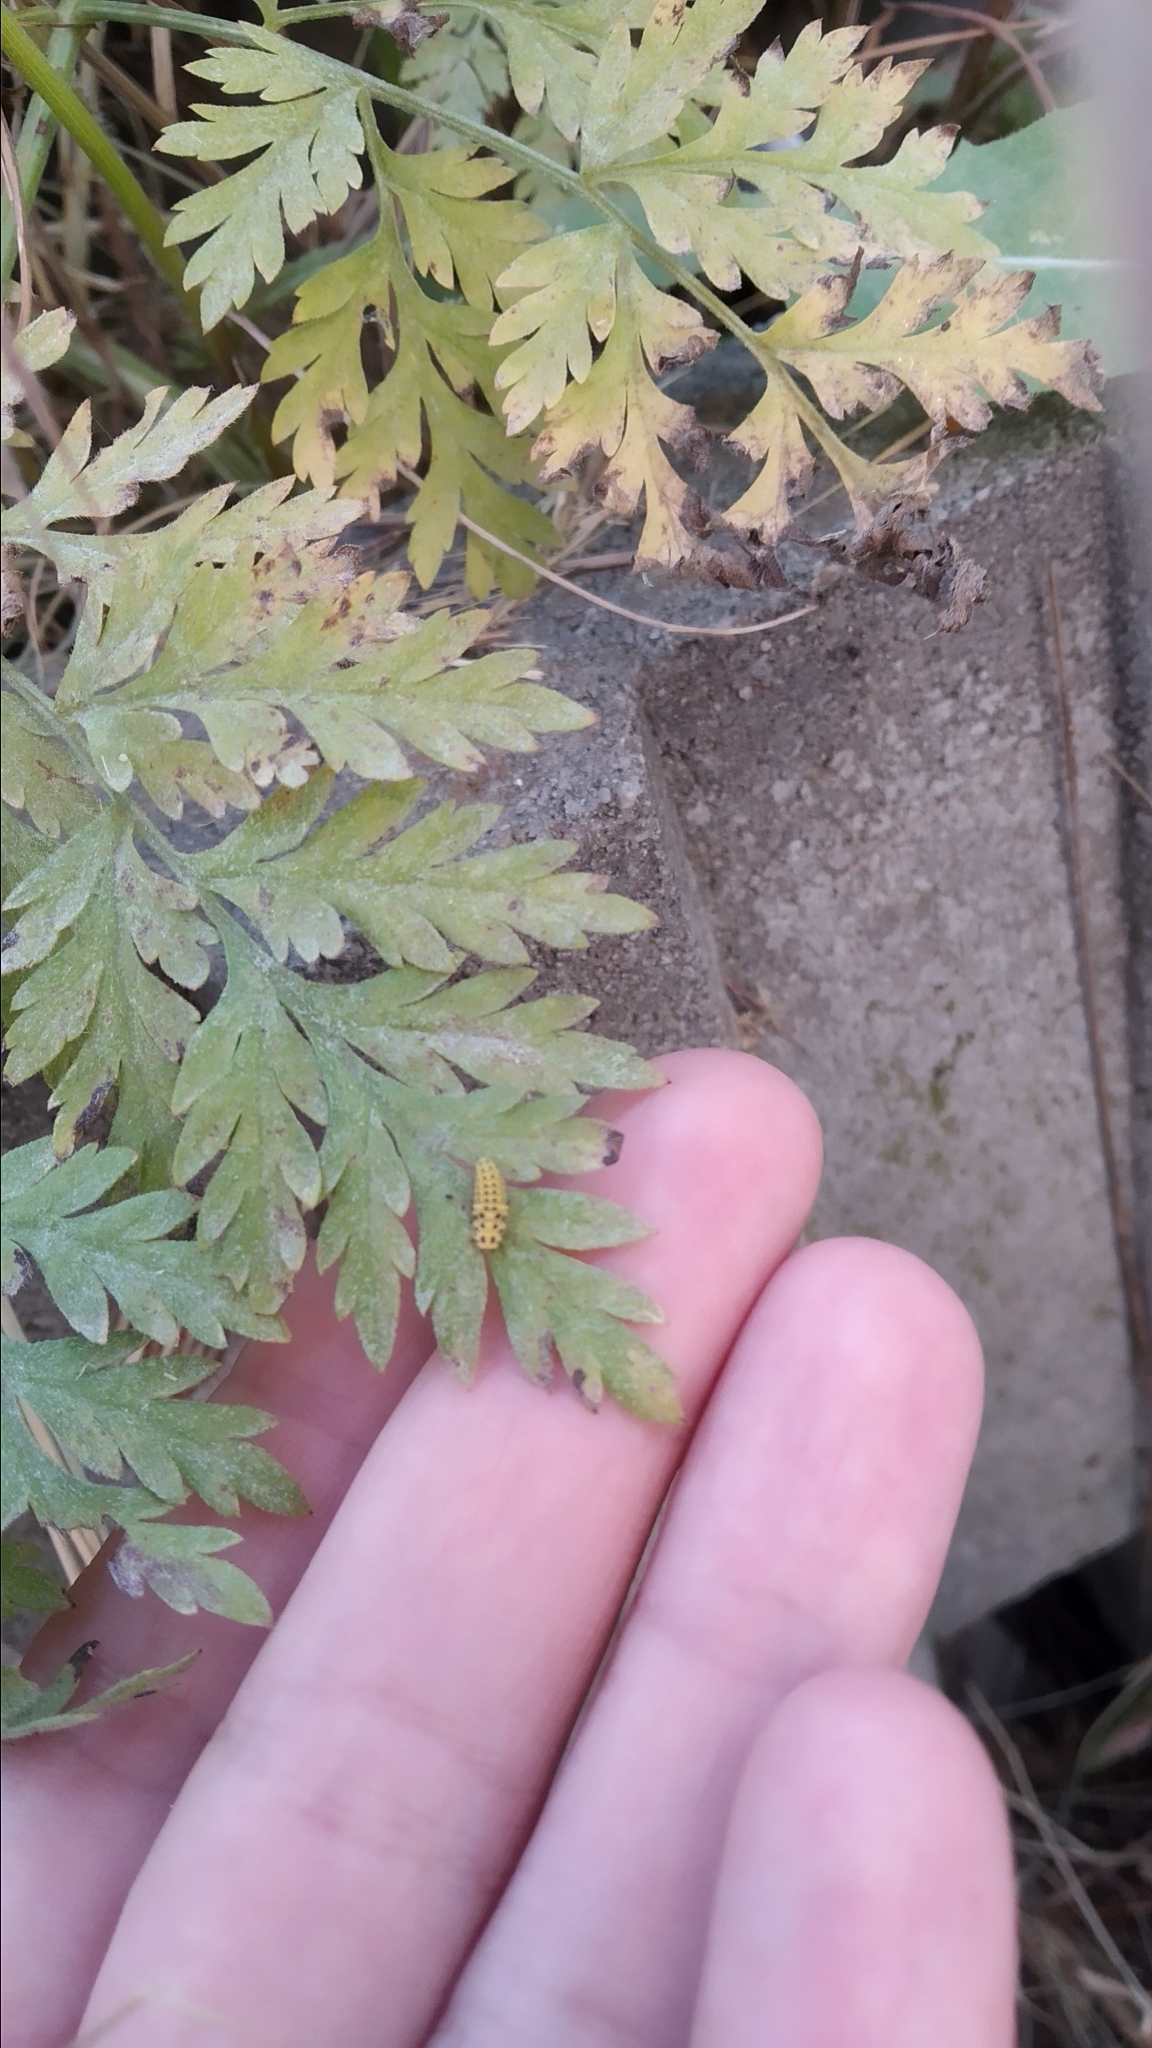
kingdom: Animalia
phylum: Arthropoda
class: Insecta
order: Coleoptera
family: Coccinellidae
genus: Psyllobora
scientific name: Psyllobora vigintiduopunctata
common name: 22-spot ladybird
